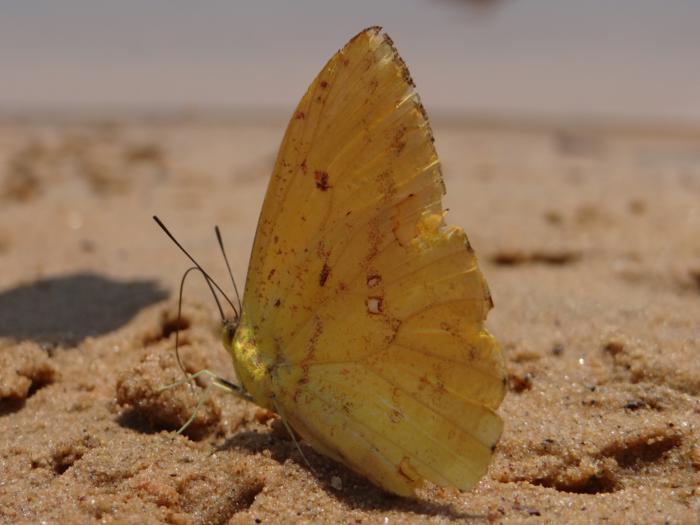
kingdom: Animalia
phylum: Arthropoda
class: Insecta
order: Lepidoptera
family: Pieridae
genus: Phoebis
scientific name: Phoebis argante
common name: Apricot sulphur
